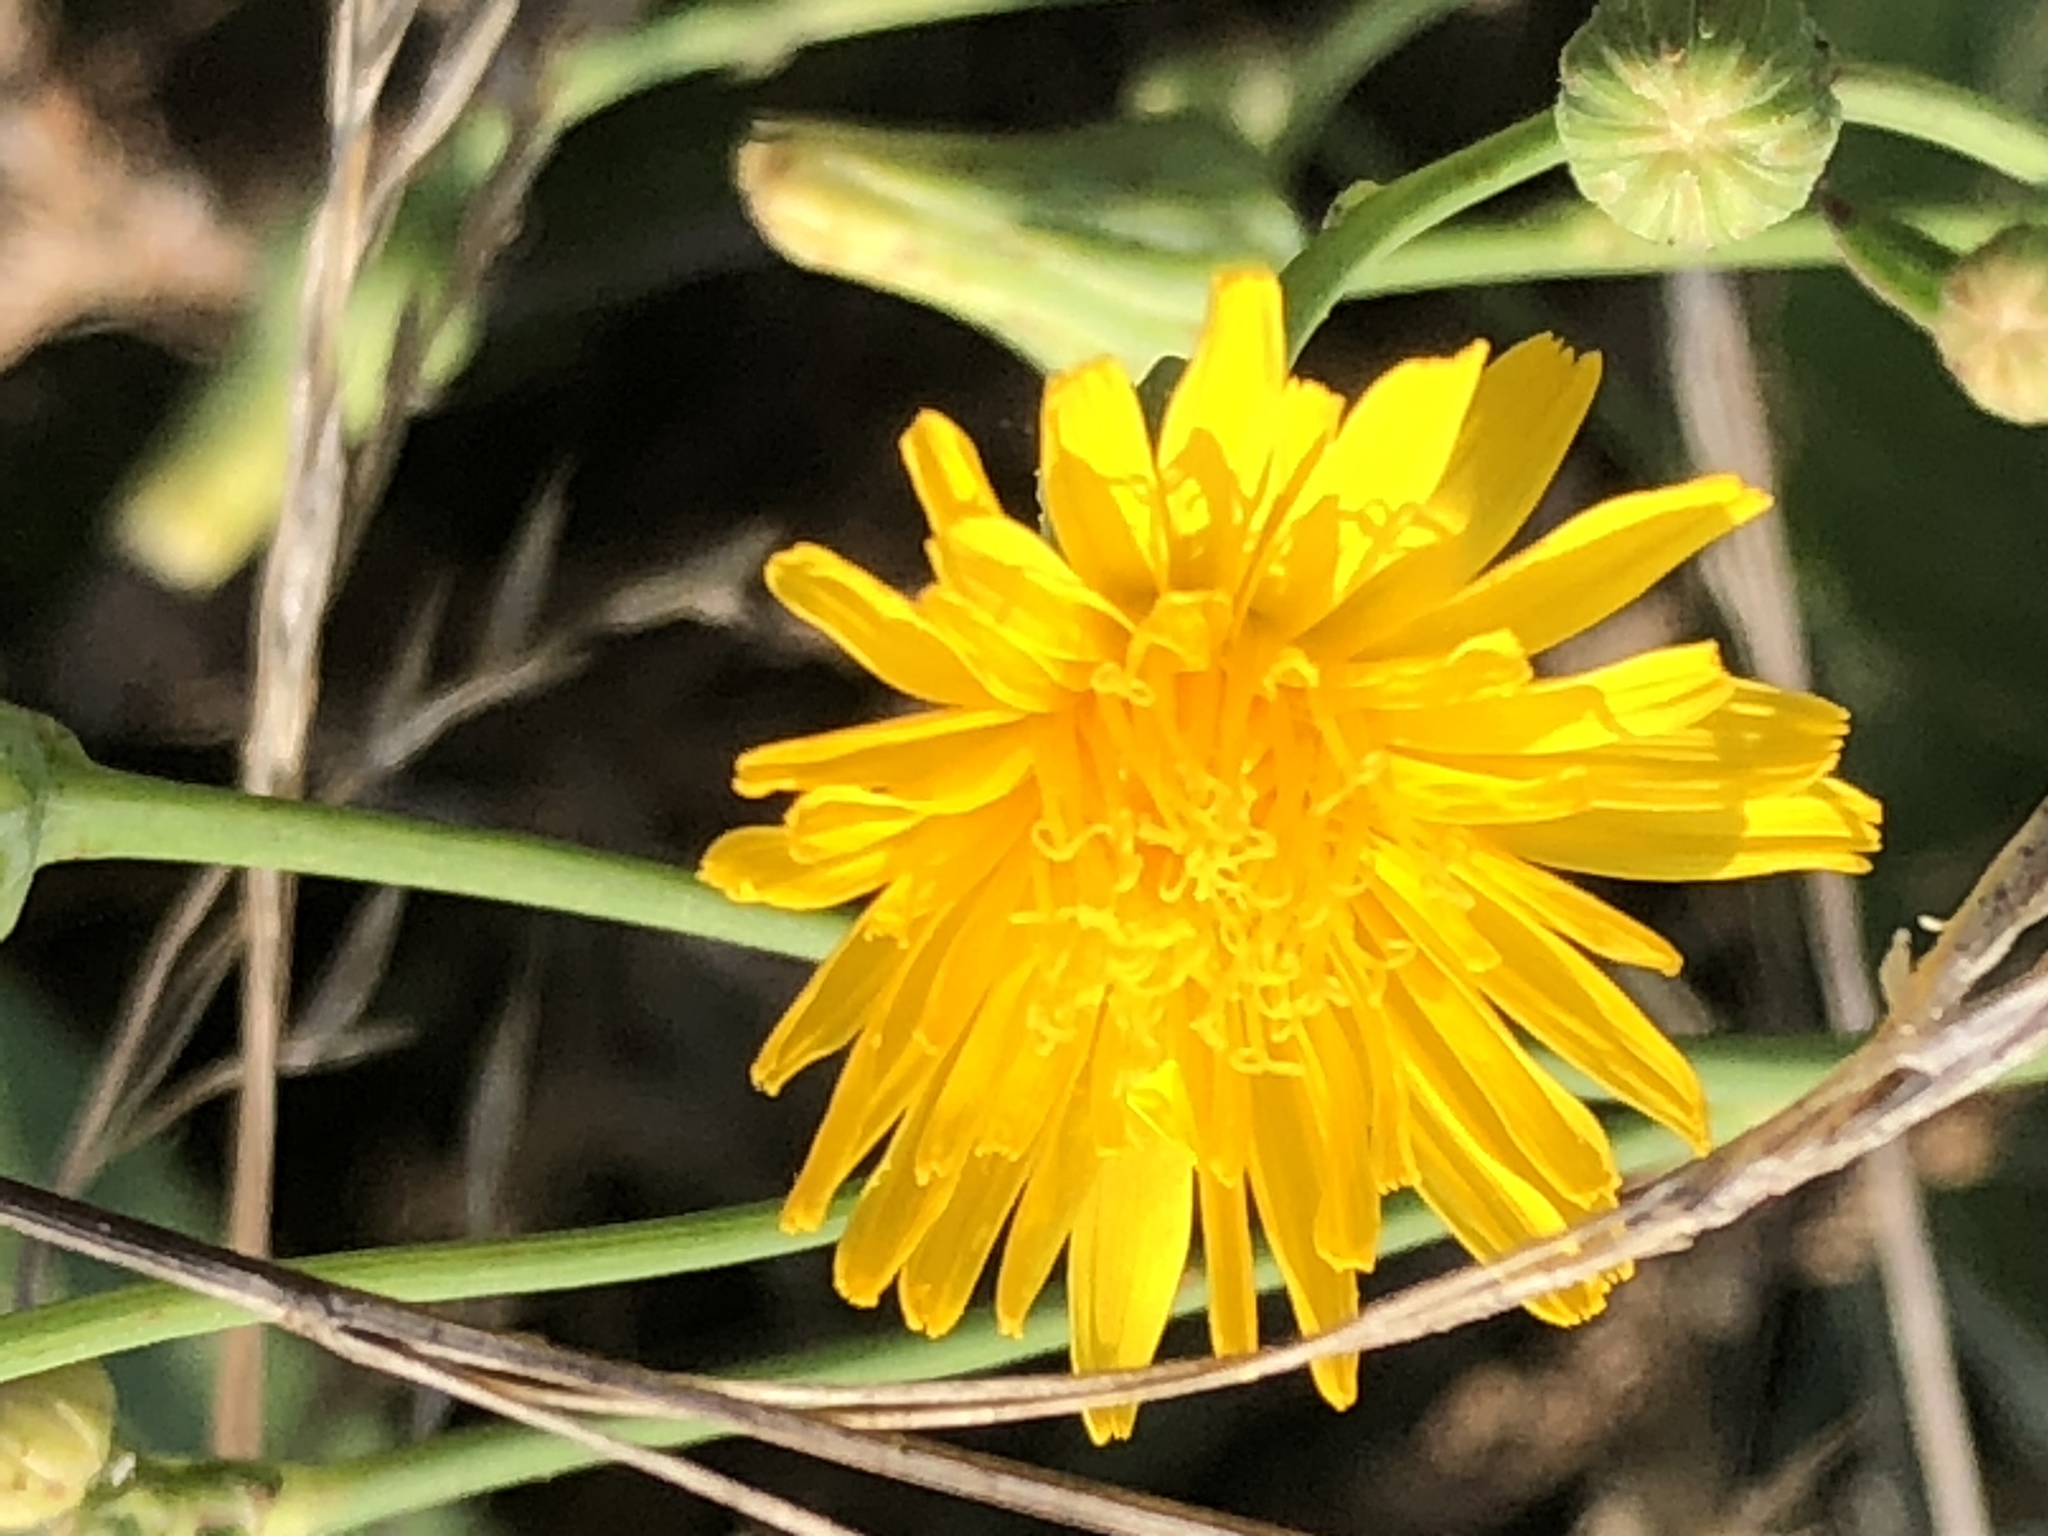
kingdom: Plantae
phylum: Tracheophyta
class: Magnoliopsida
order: Asterales
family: Asteraceae
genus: Sonchus
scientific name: Sonchus arvensis
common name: Perennial sow-thistle
